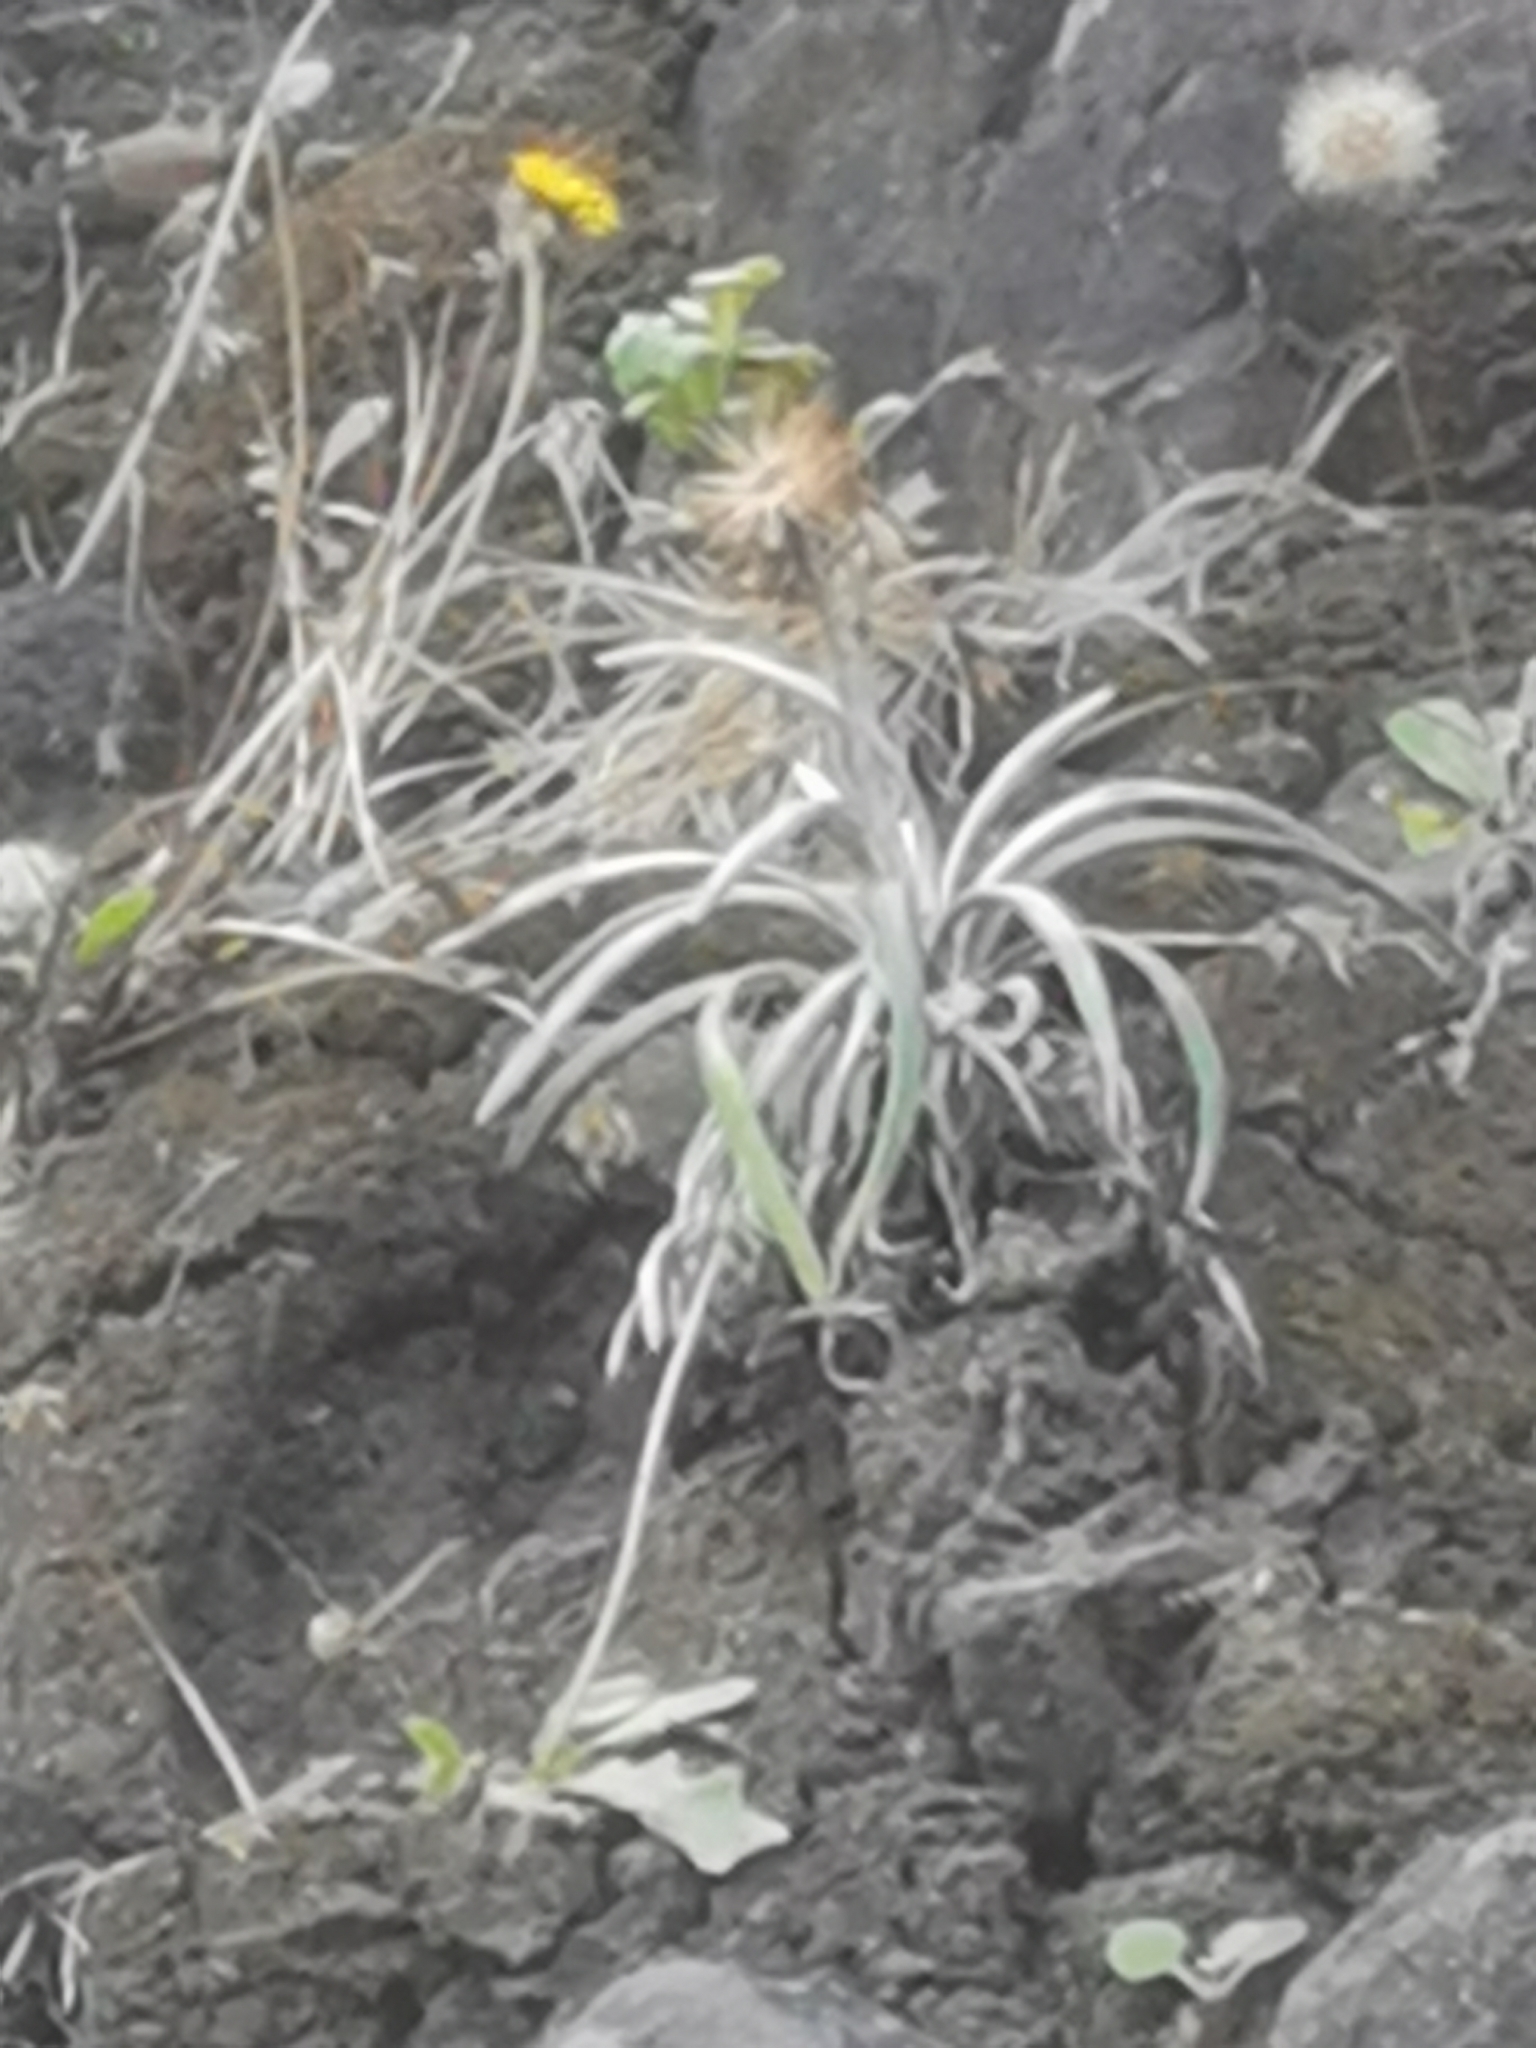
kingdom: Plantae
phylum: Tracheophyta
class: Magnoliopsida
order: Asterales
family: Asteraceae
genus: Celmisia
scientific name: Celmisia major
